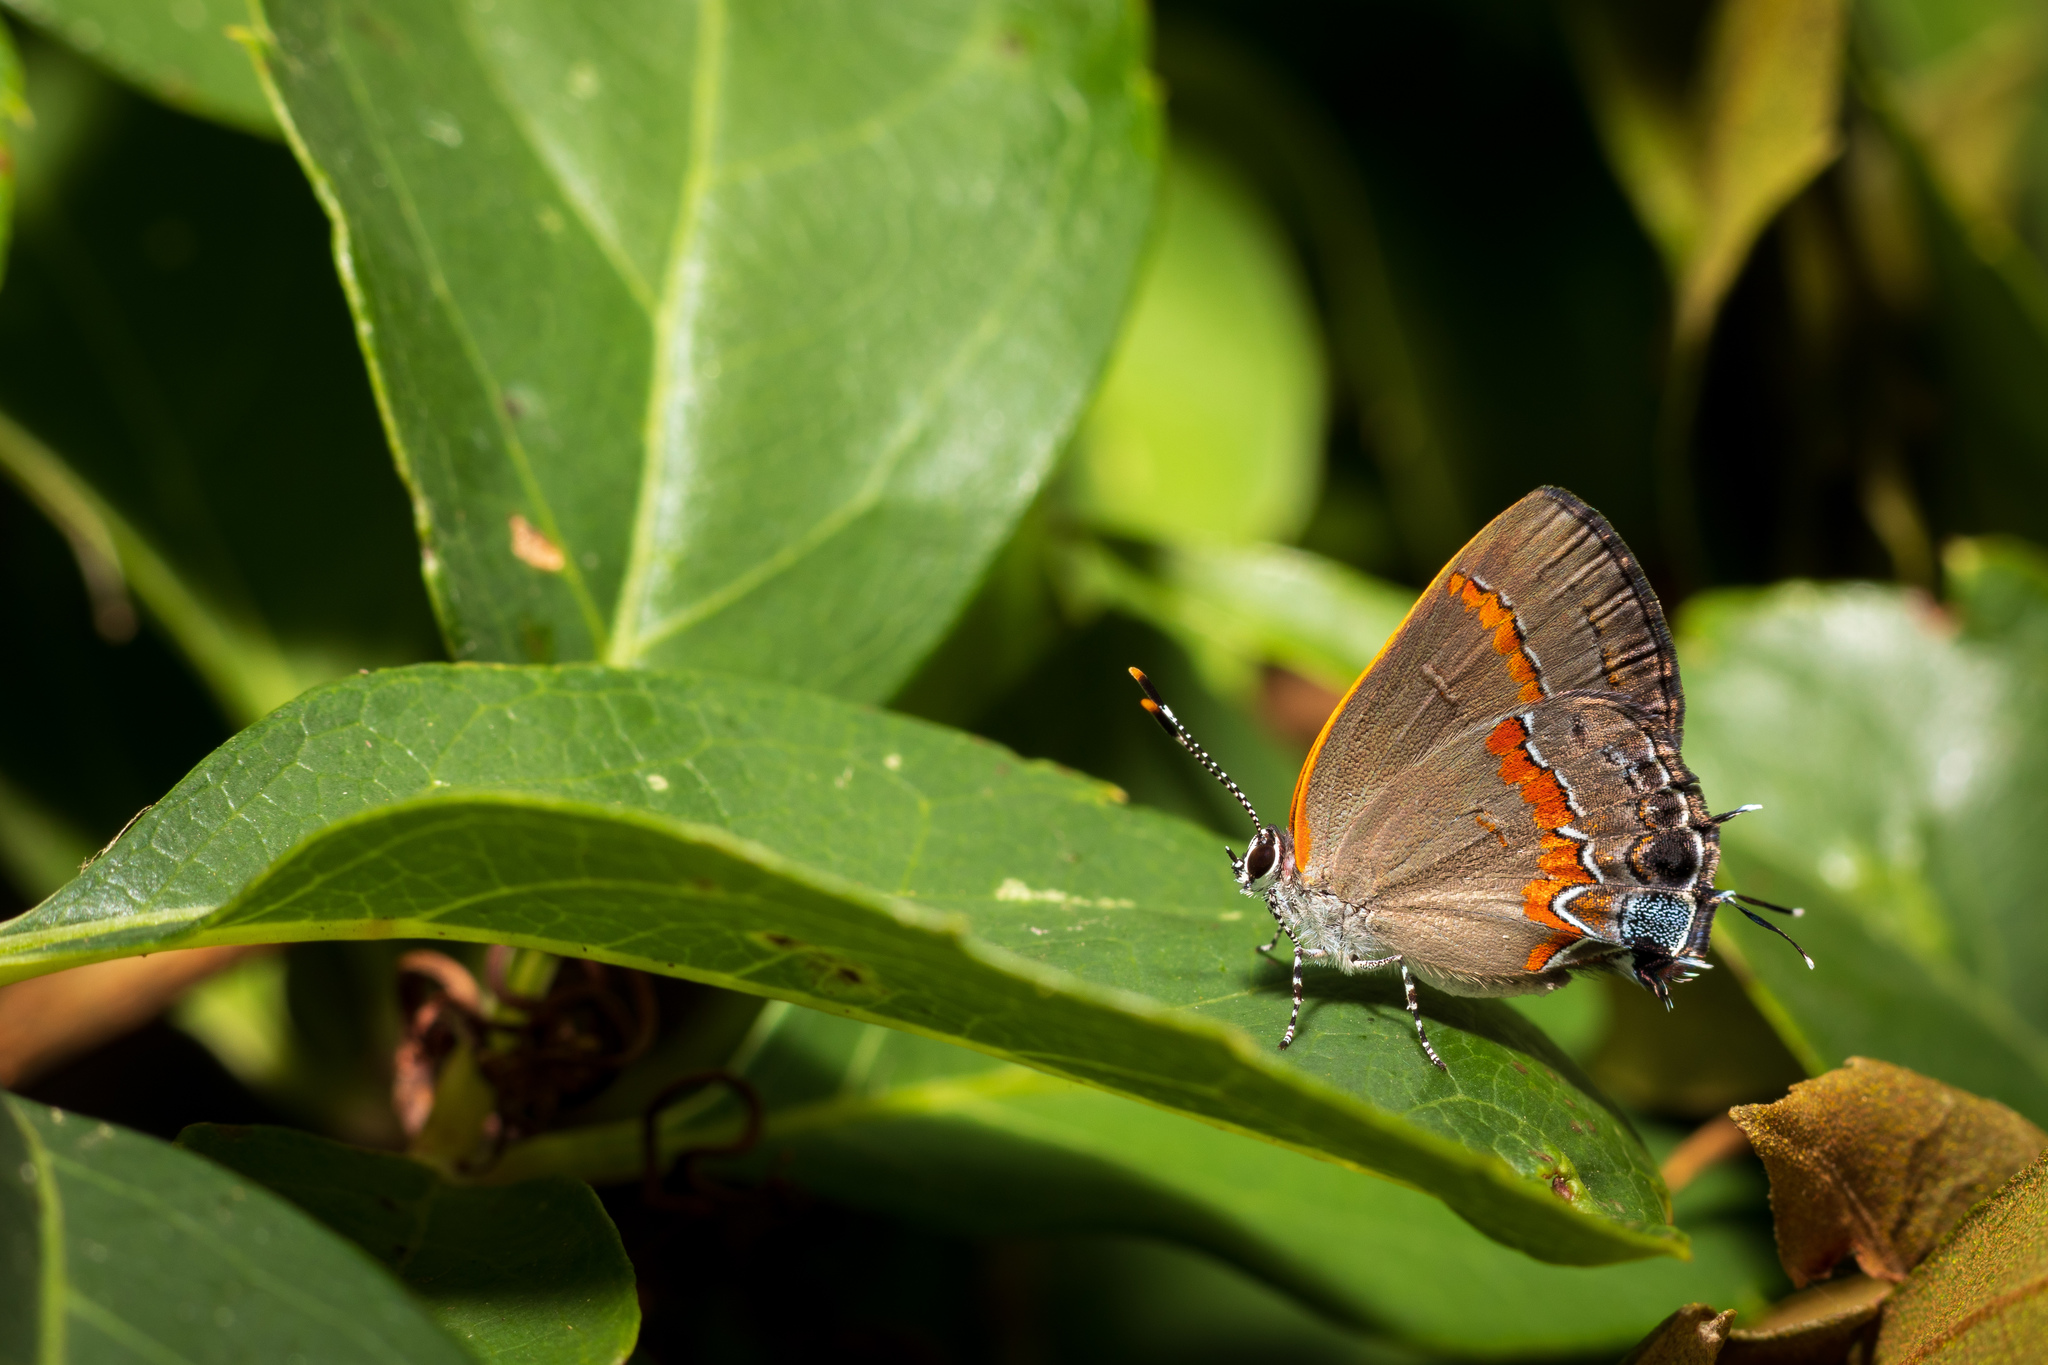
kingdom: Animalia
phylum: Arthropoda
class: Insecta
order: Lepidoptera
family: Lycaenidae
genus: Calycopis
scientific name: Calycopis cecrops
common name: Red-banded hairstreak
